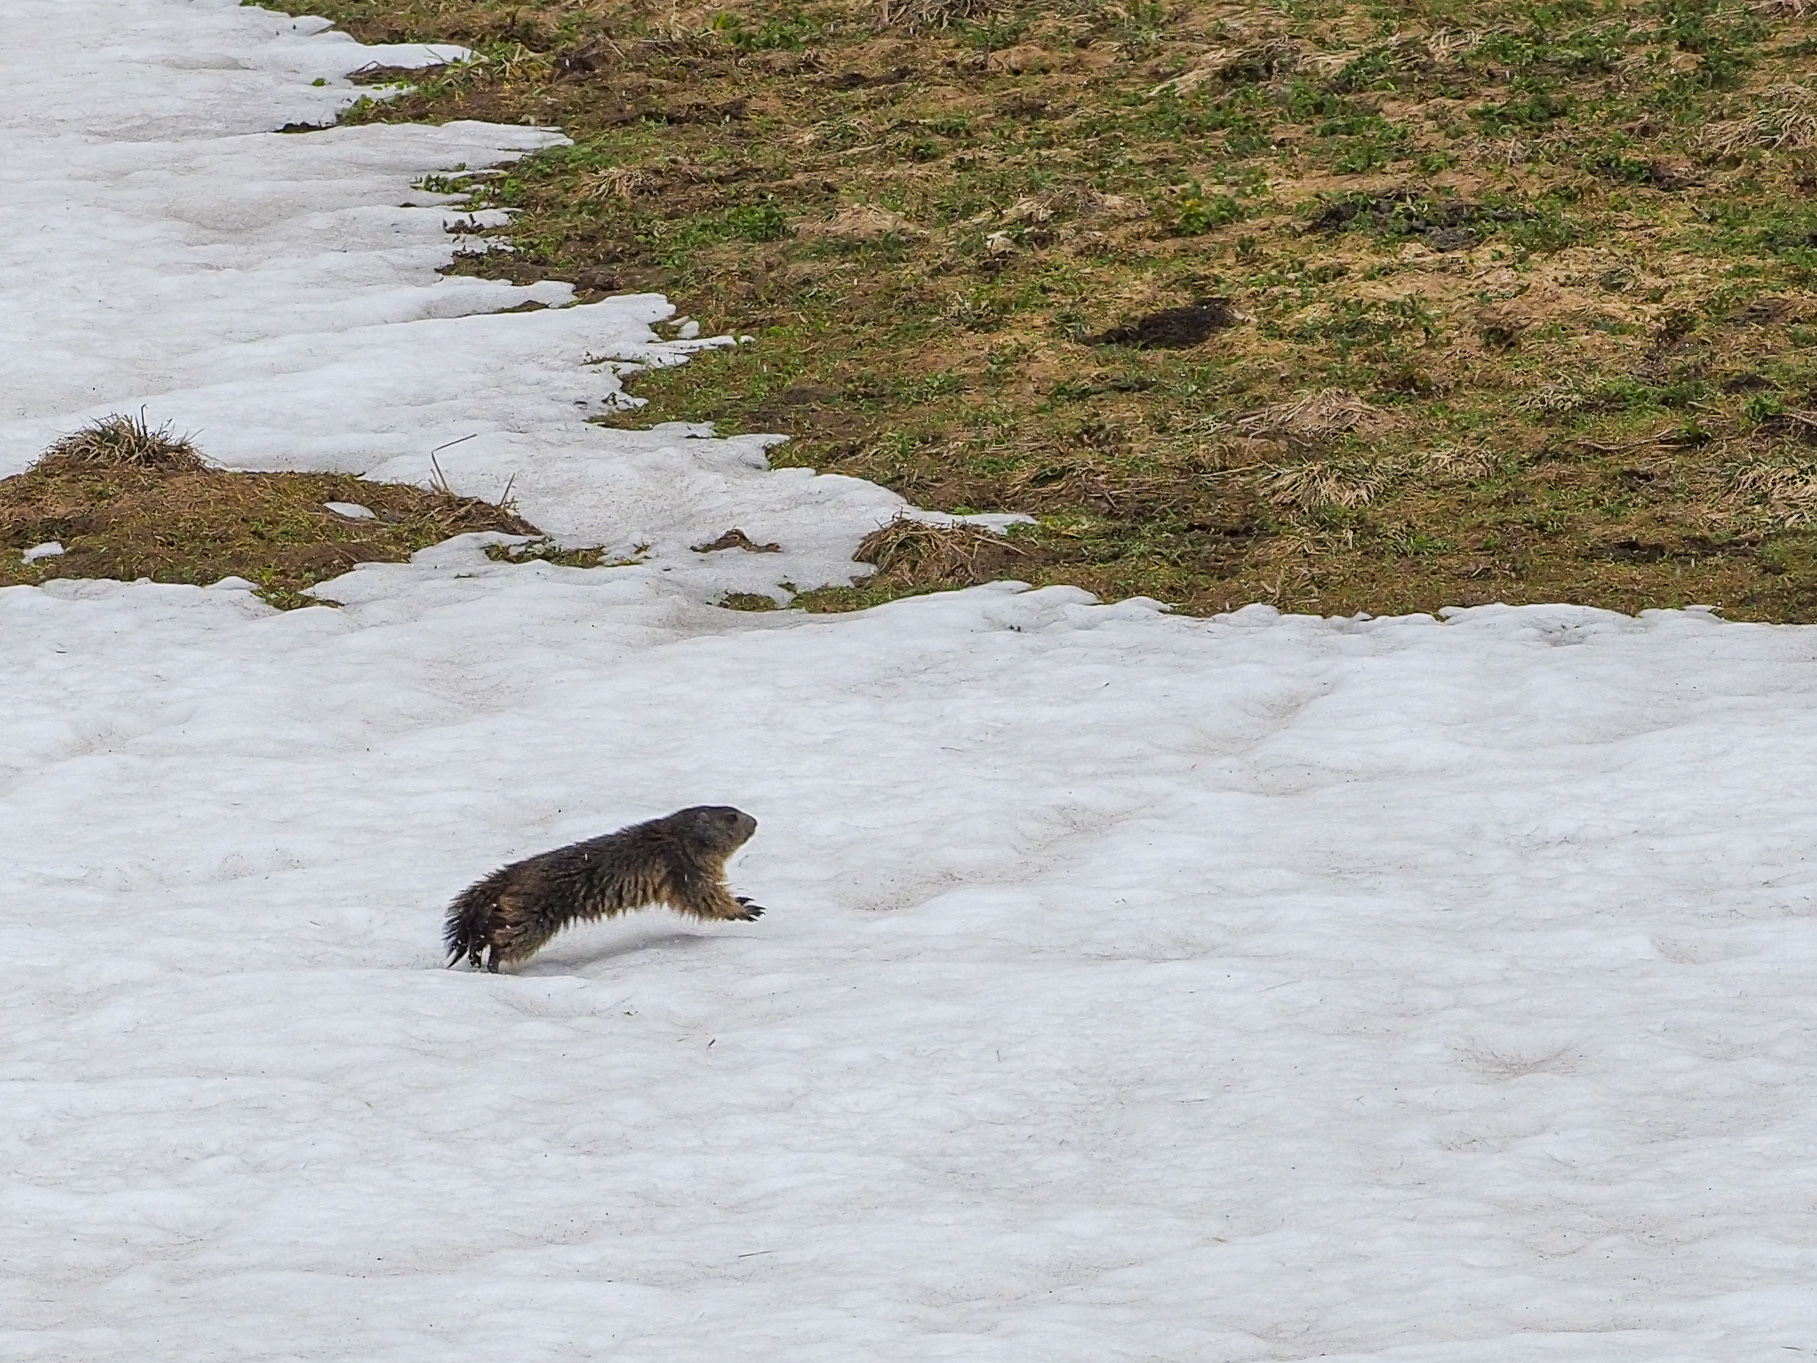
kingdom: Animalia
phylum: Chordata
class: Mammalia
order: Rodentia
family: Sciuridae
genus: Marmota
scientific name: Marmota marmota
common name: Alpine marmot
